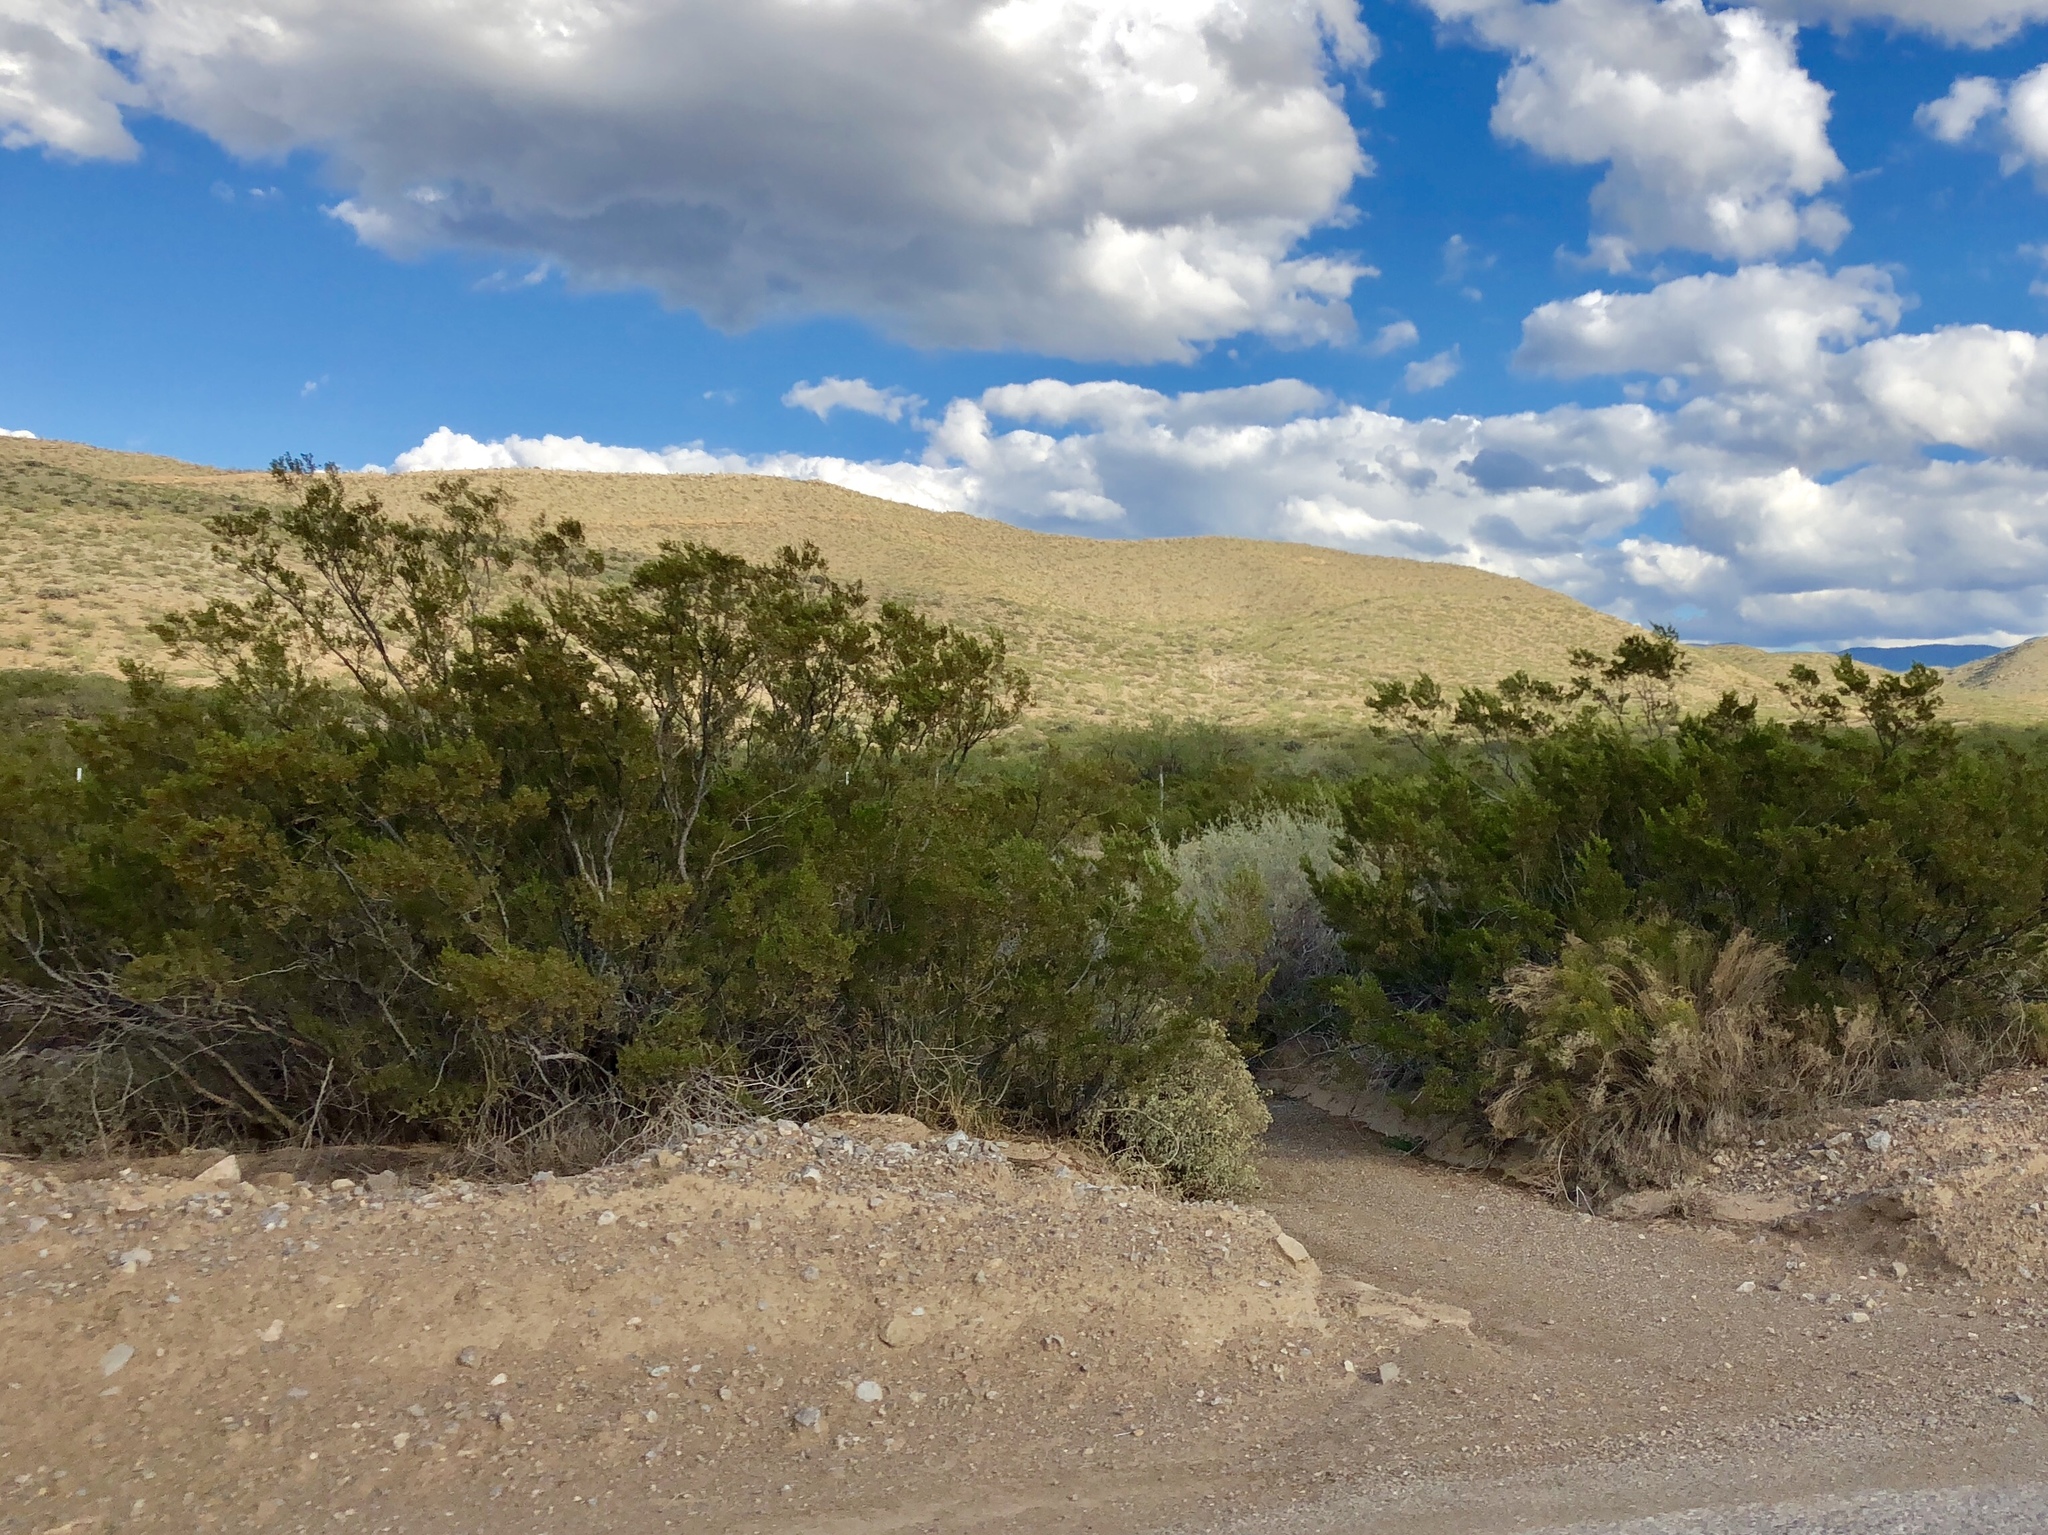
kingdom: Plantae
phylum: Tracheophyta
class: Magnoliopsida
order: Zygophyllales
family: Zygophyllaceae
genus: Larrea
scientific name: Larrea tridentata
